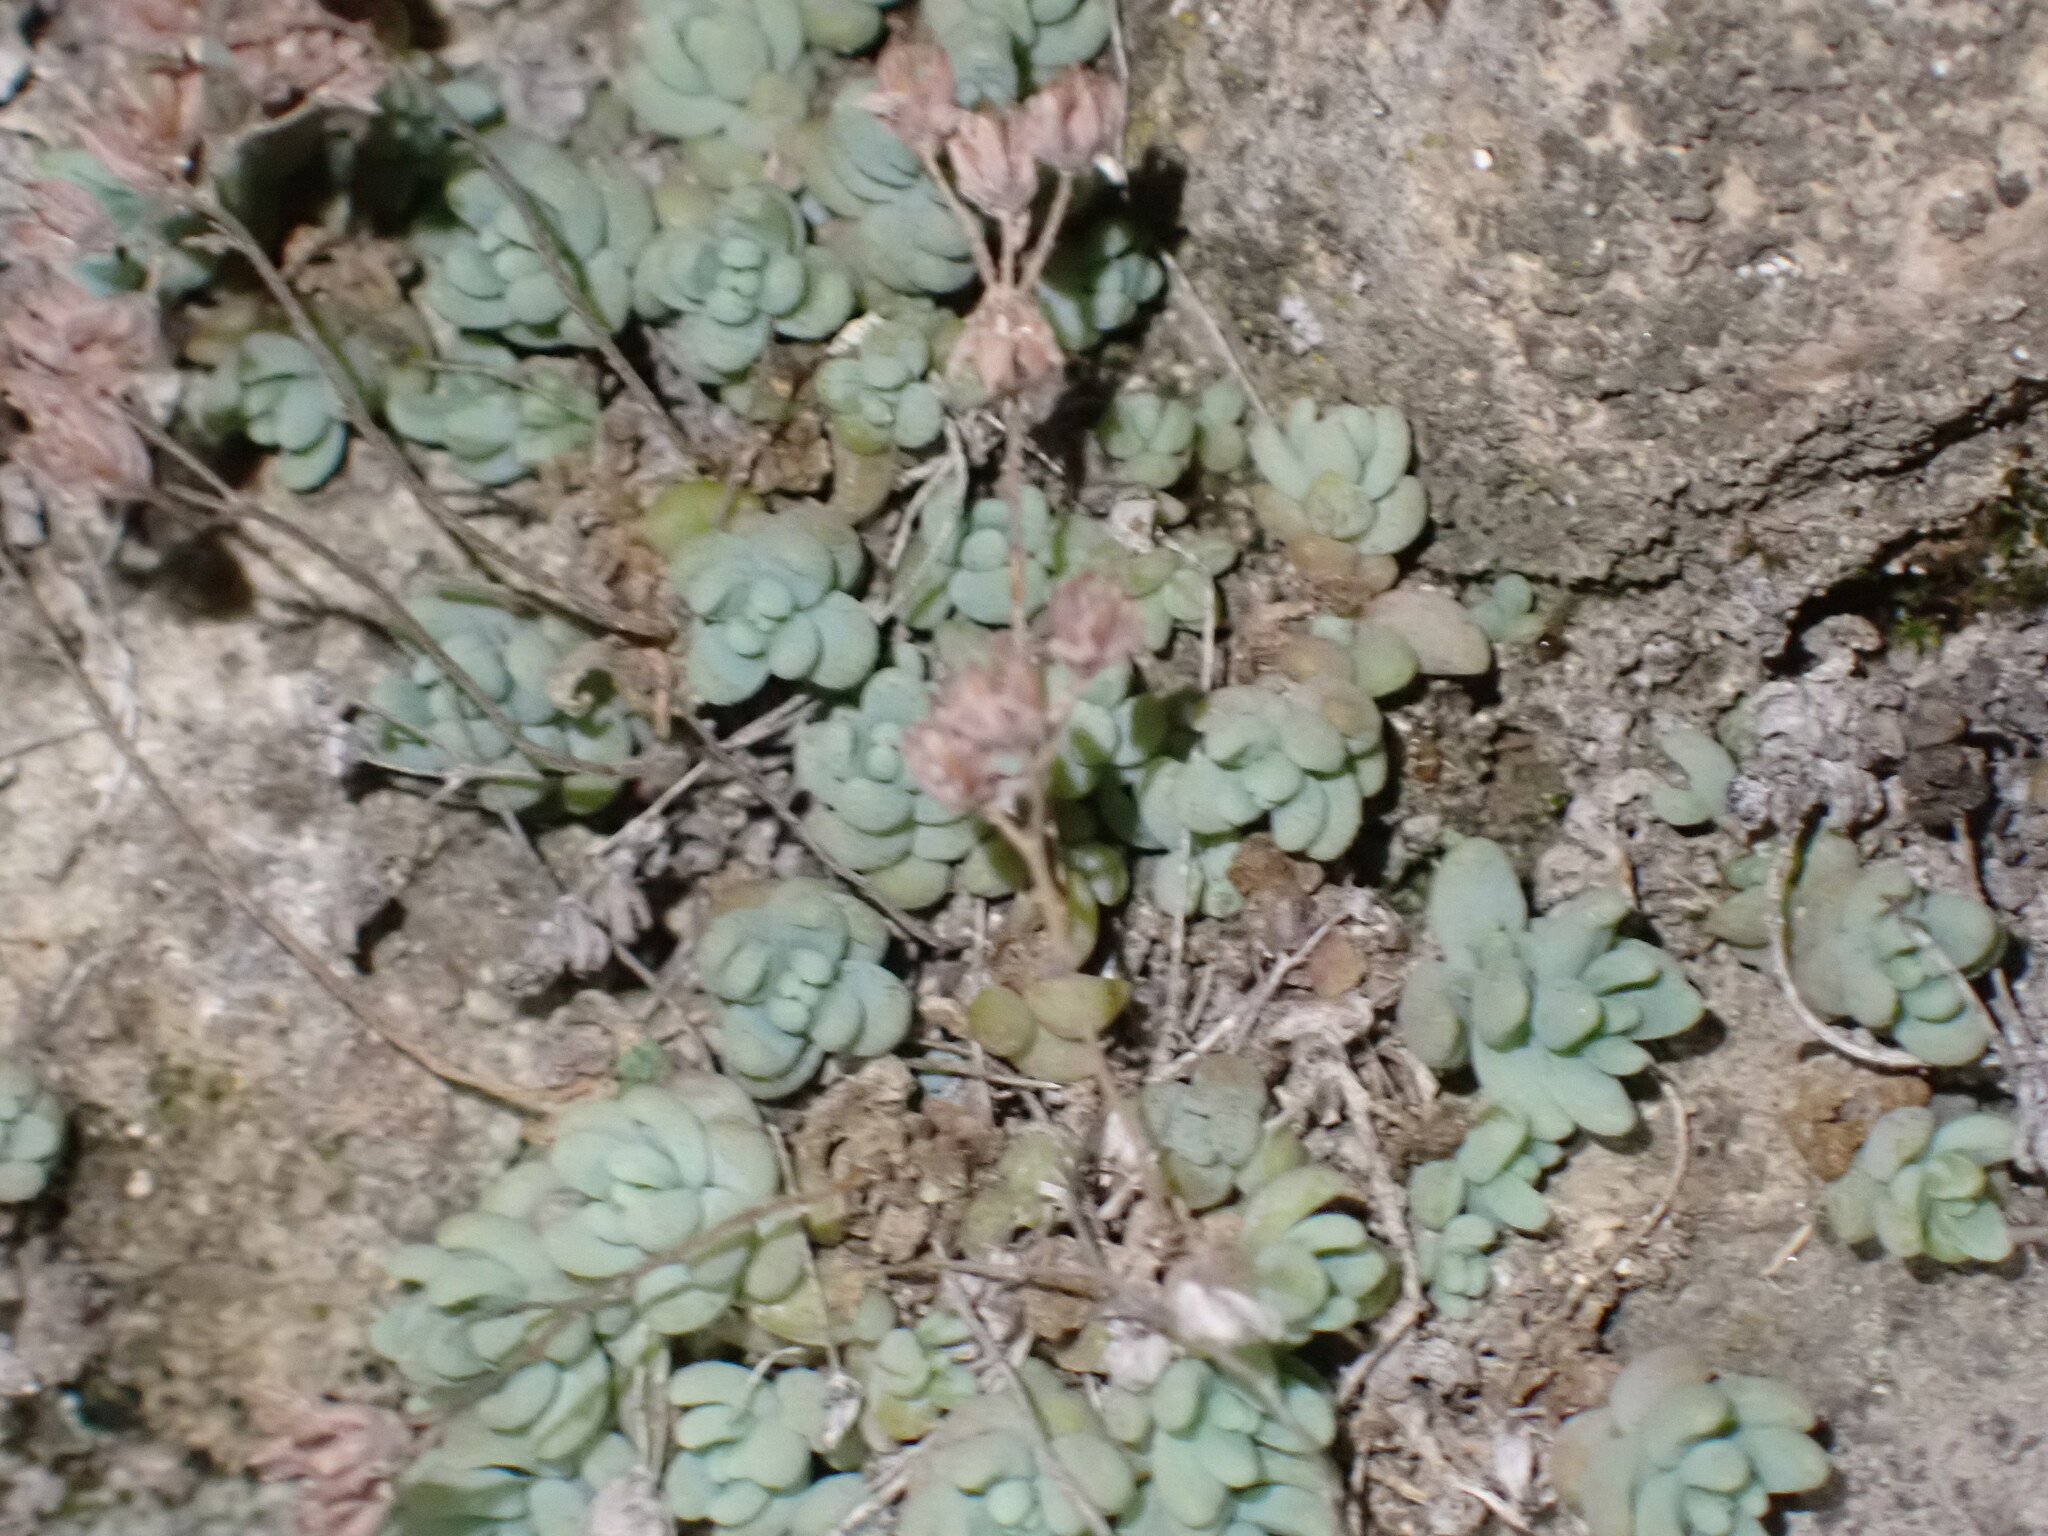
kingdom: Plantae
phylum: Tracheophyta
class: Magnoliopsida
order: Saxifragales
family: Crassulaceae
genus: Sedum
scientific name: Sedum dasyphyllum
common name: Thick-leaf stonecrop
